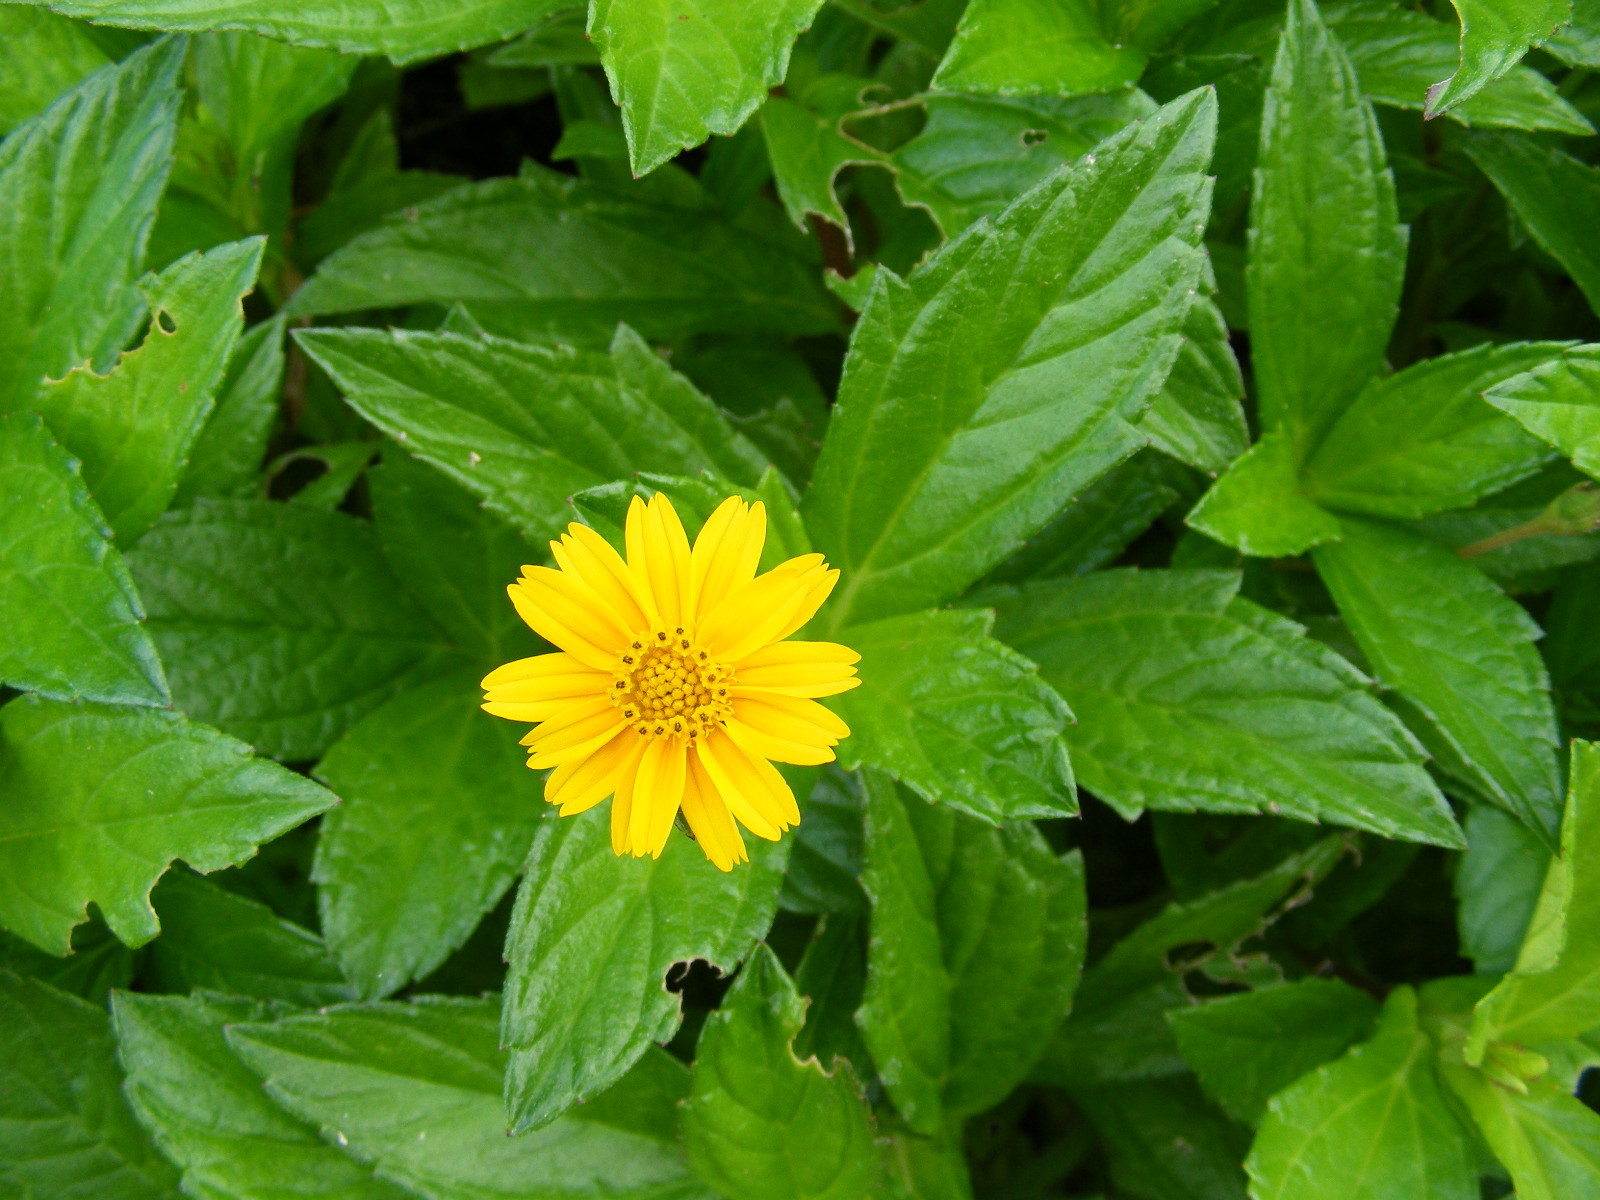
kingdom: Plantae
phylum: Tracheophyta
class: Magnoliopsida
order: Asterales
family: Asteraceae
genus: Sphagneticola
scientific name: Sphagneticola trilobata
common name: Bay biscayne creeping-oxeye
